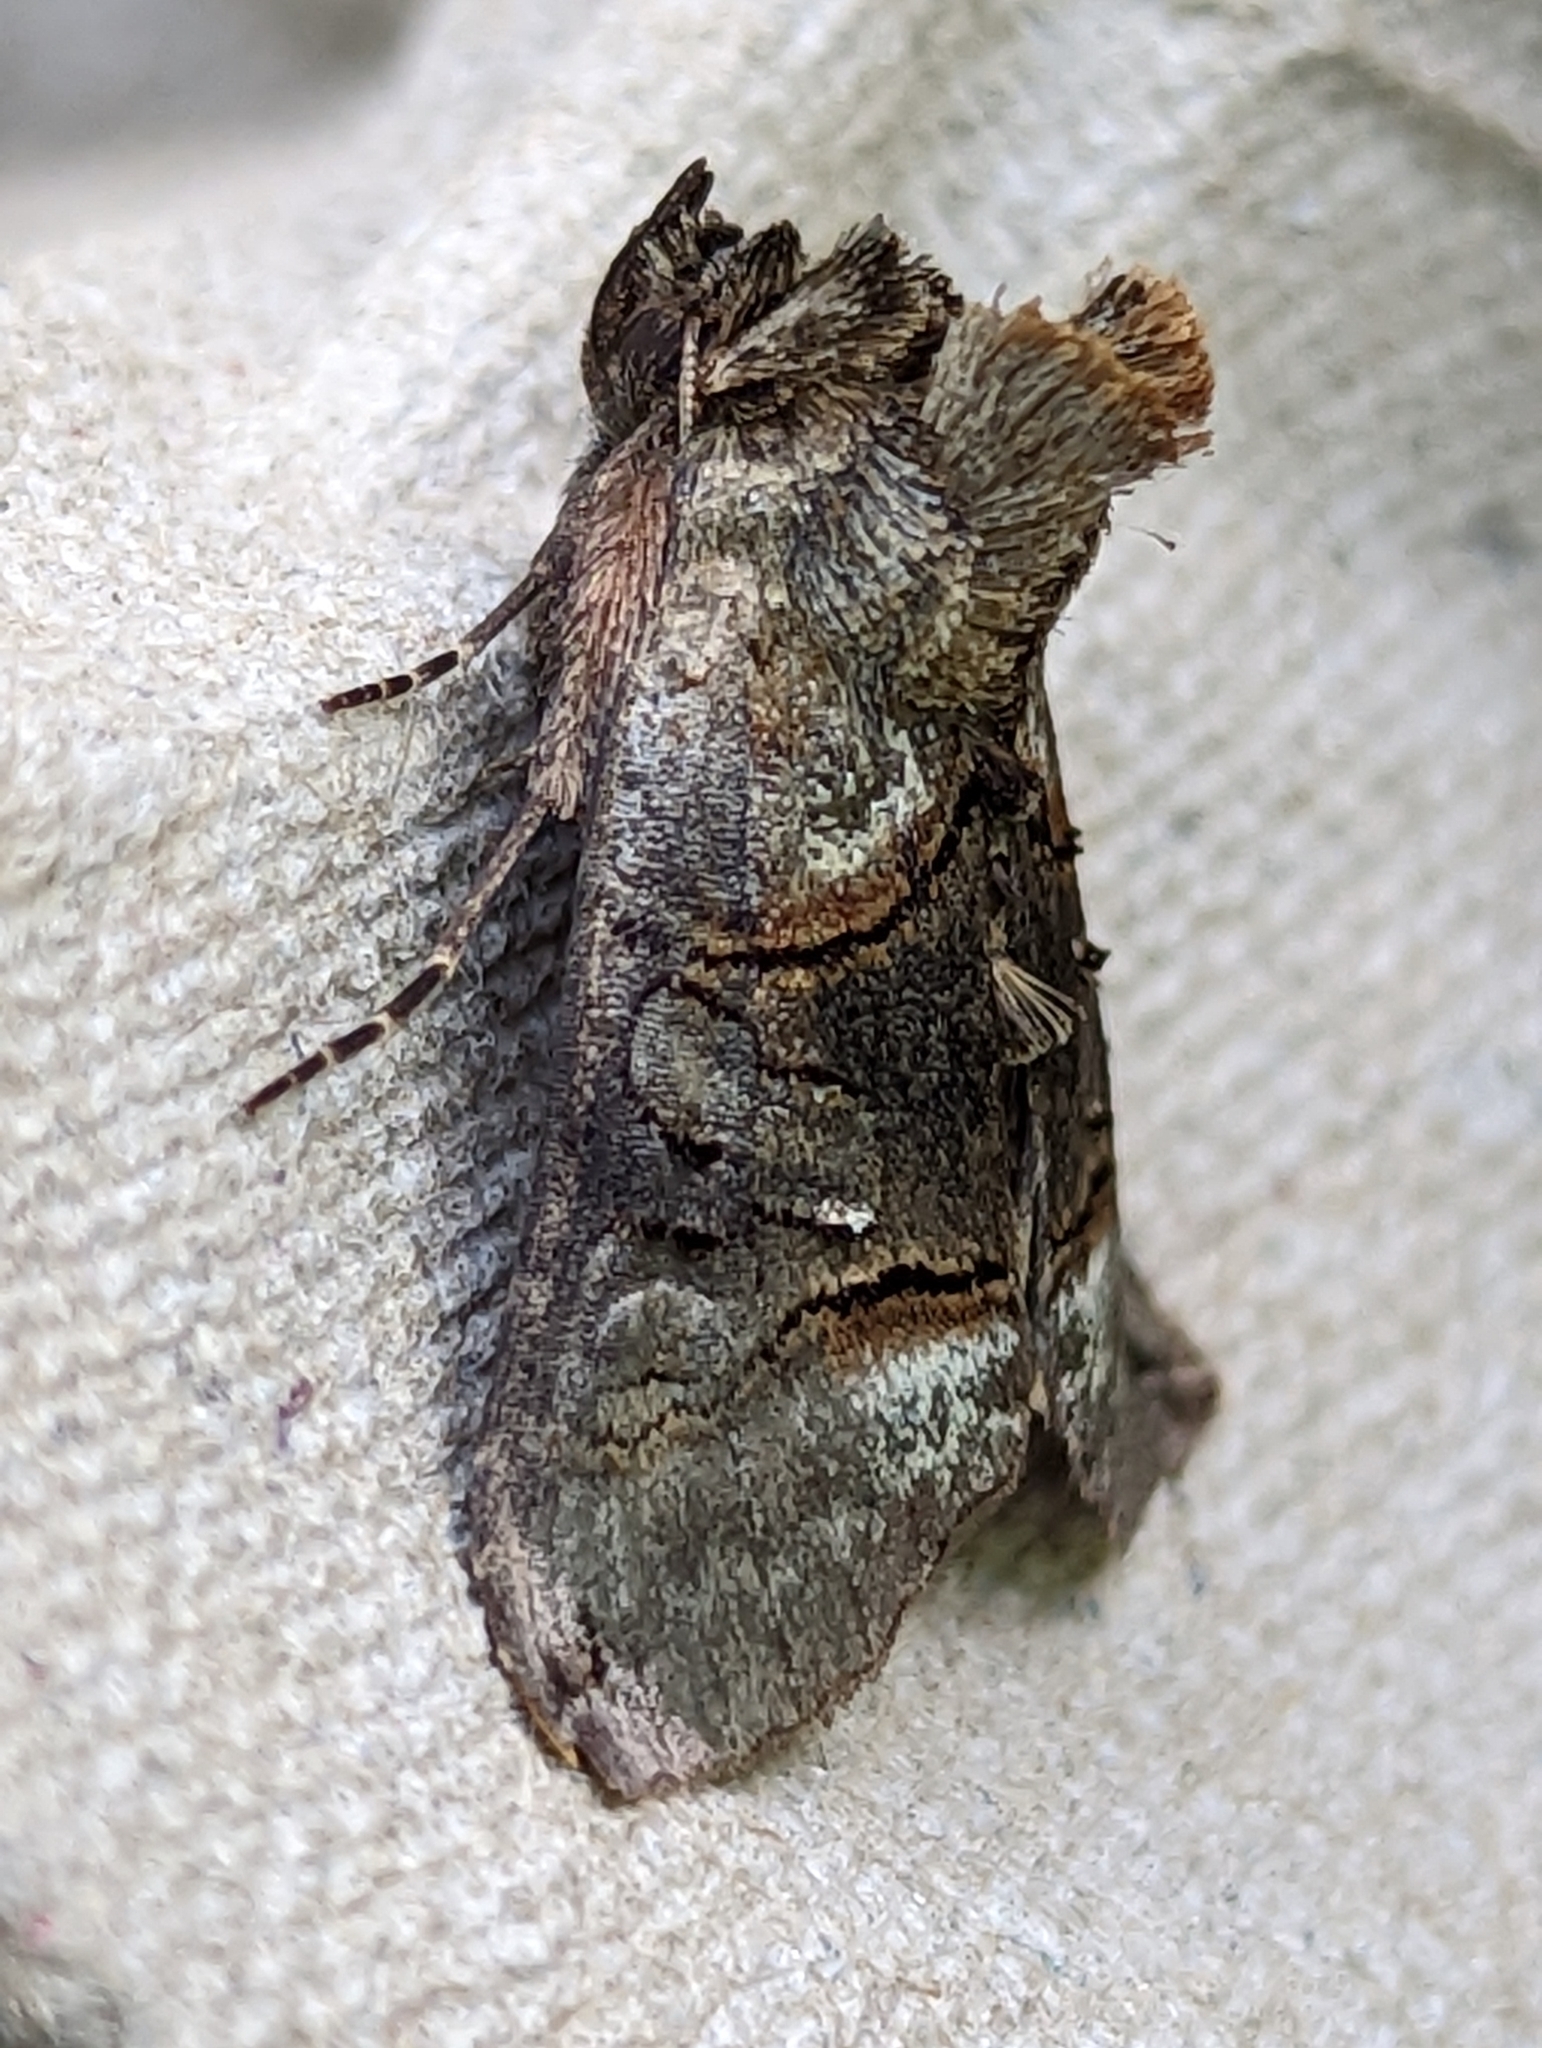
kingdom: Animalia
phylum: Arthropoda
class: Insecta
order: Lepidoptera
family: Noctuidae
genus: Abrostola
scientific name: Abrostola tripartita
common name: Spectacle
